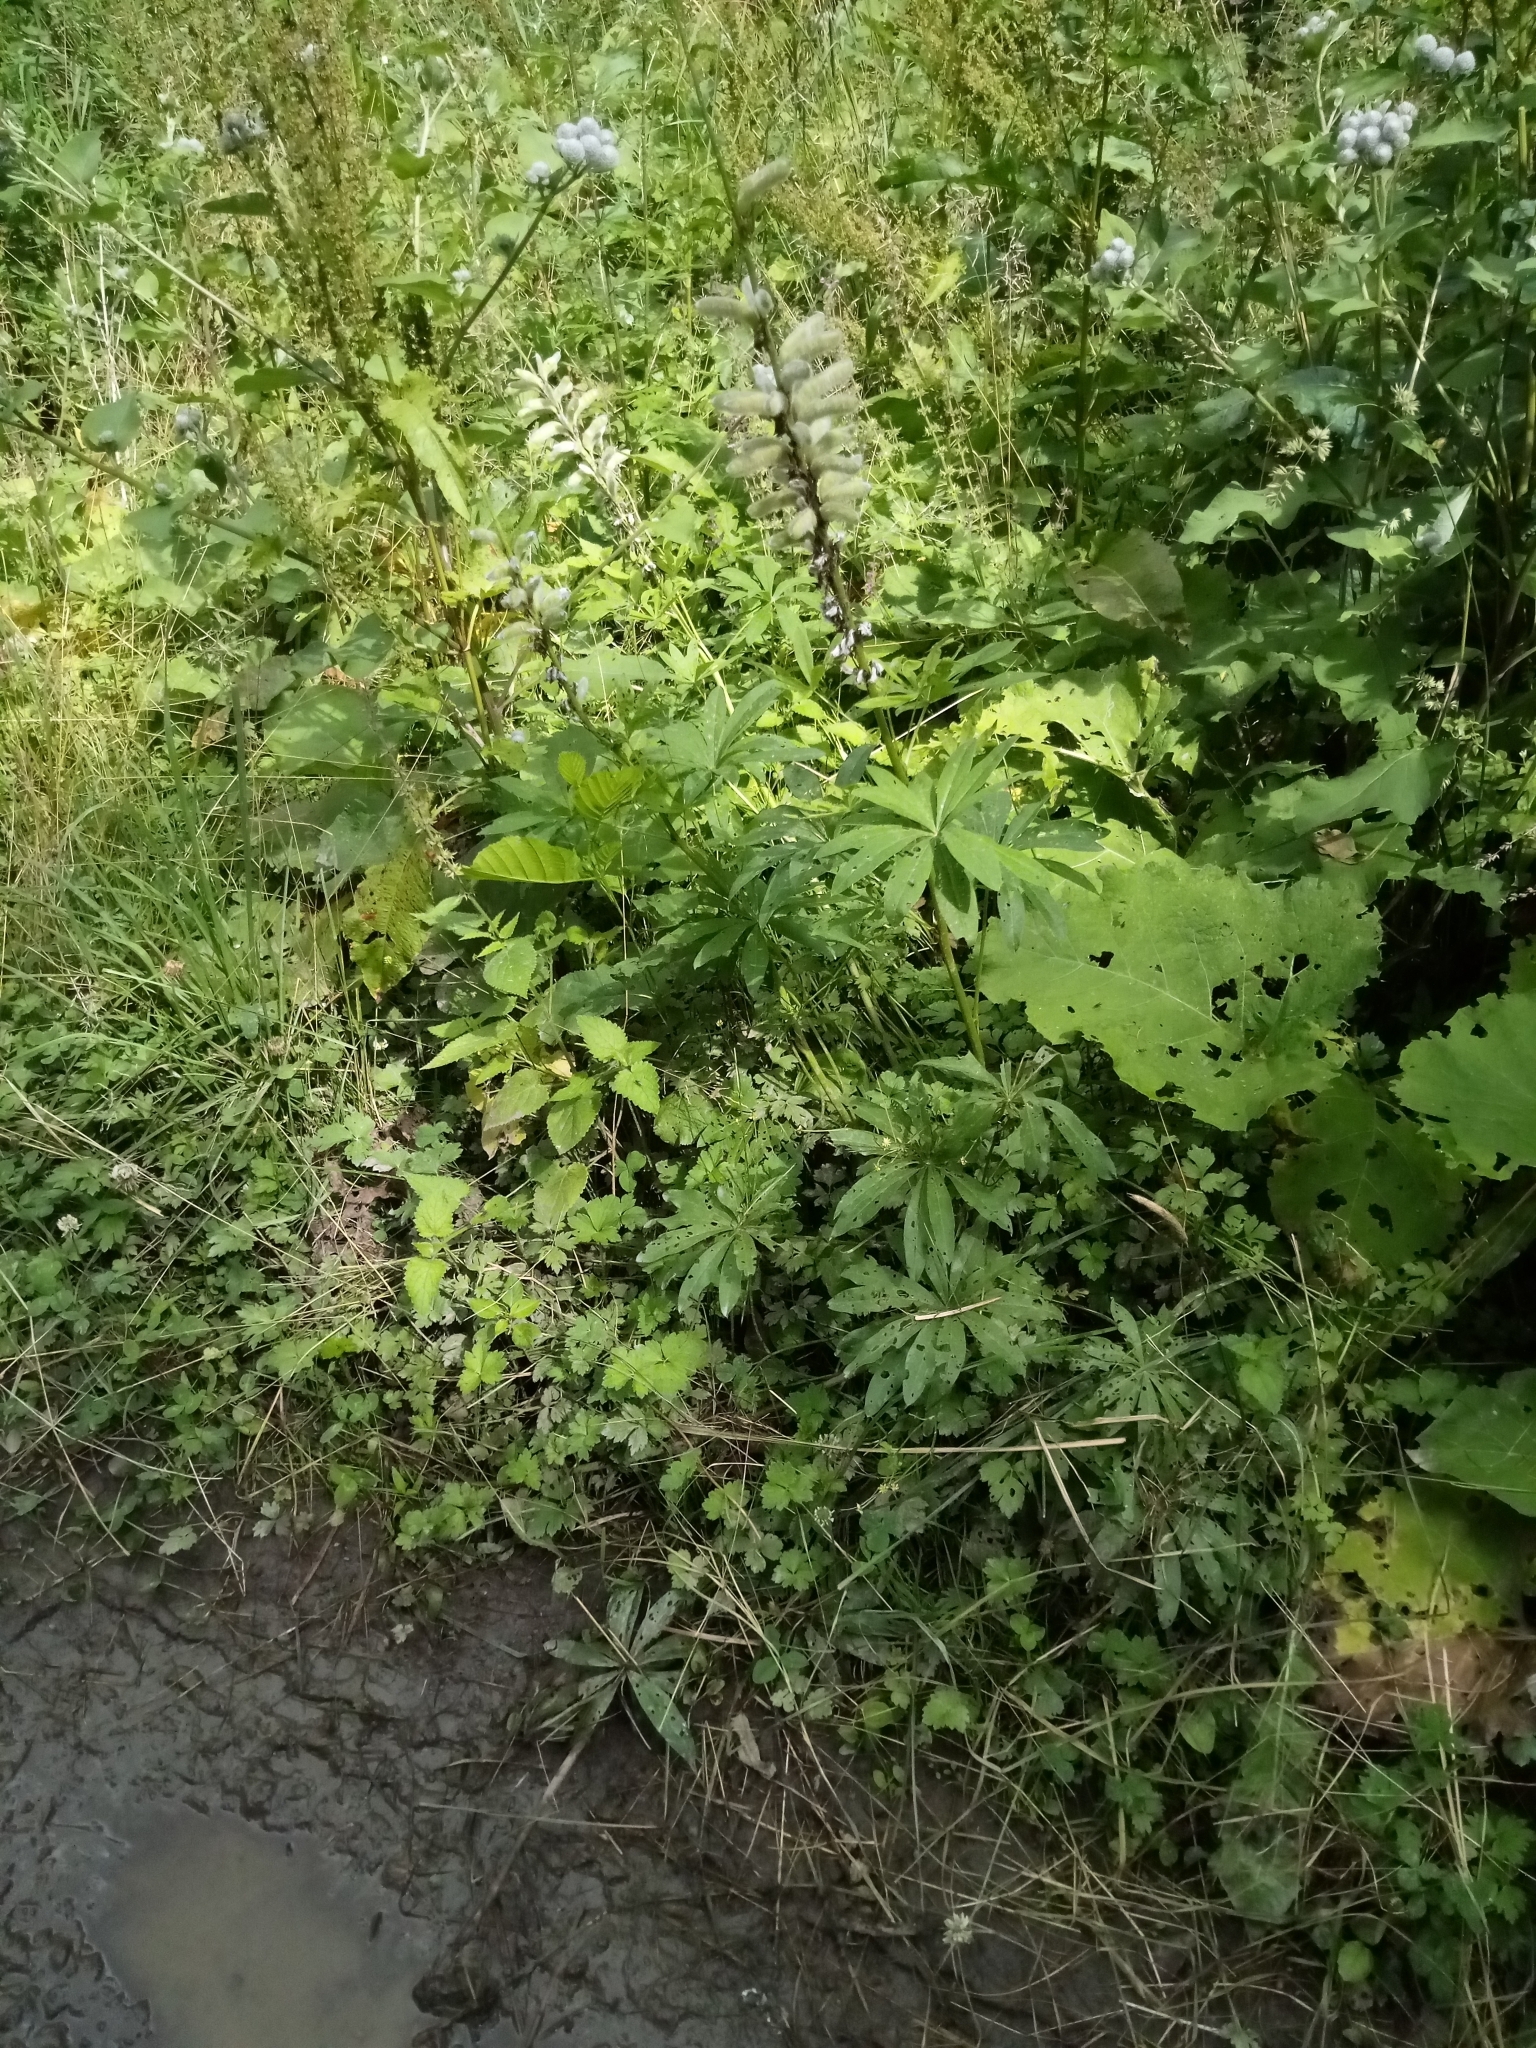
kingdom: Plantae
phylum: Tracheophyta
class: Magnoliopsida
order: Fabales
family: Fabaceae
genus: Lupinus
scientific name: Lupinus polyphyllus
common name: Garden lupin
